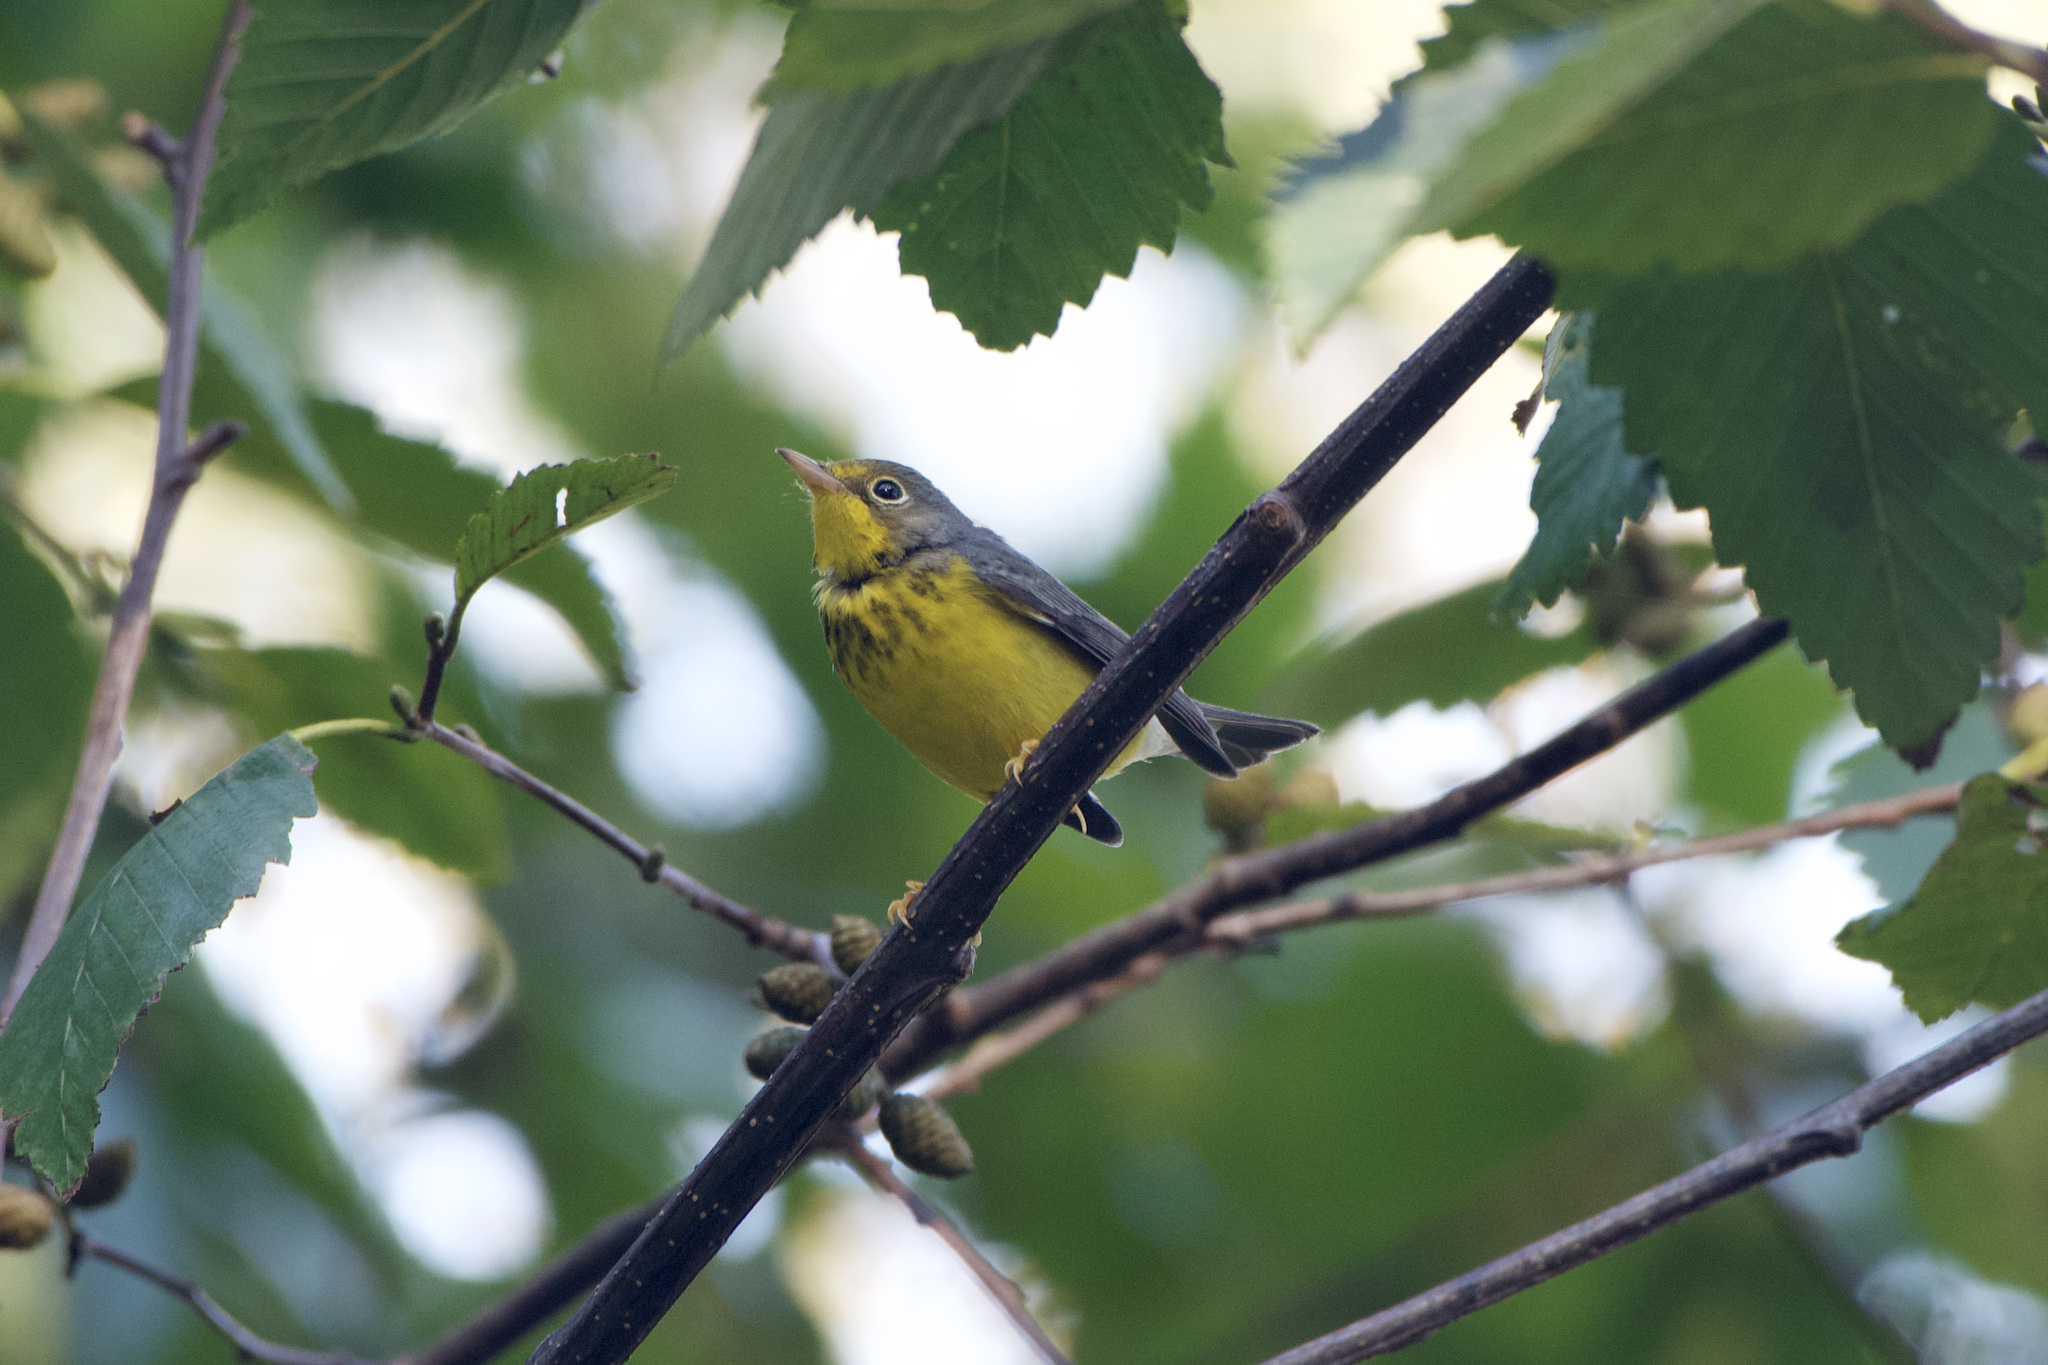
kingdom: Animalia
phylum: Chordata
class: Aves
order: Passeriformes
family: Parulidae
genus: Cardellina
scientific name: Cardellina canadensis
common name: Canada warbler
